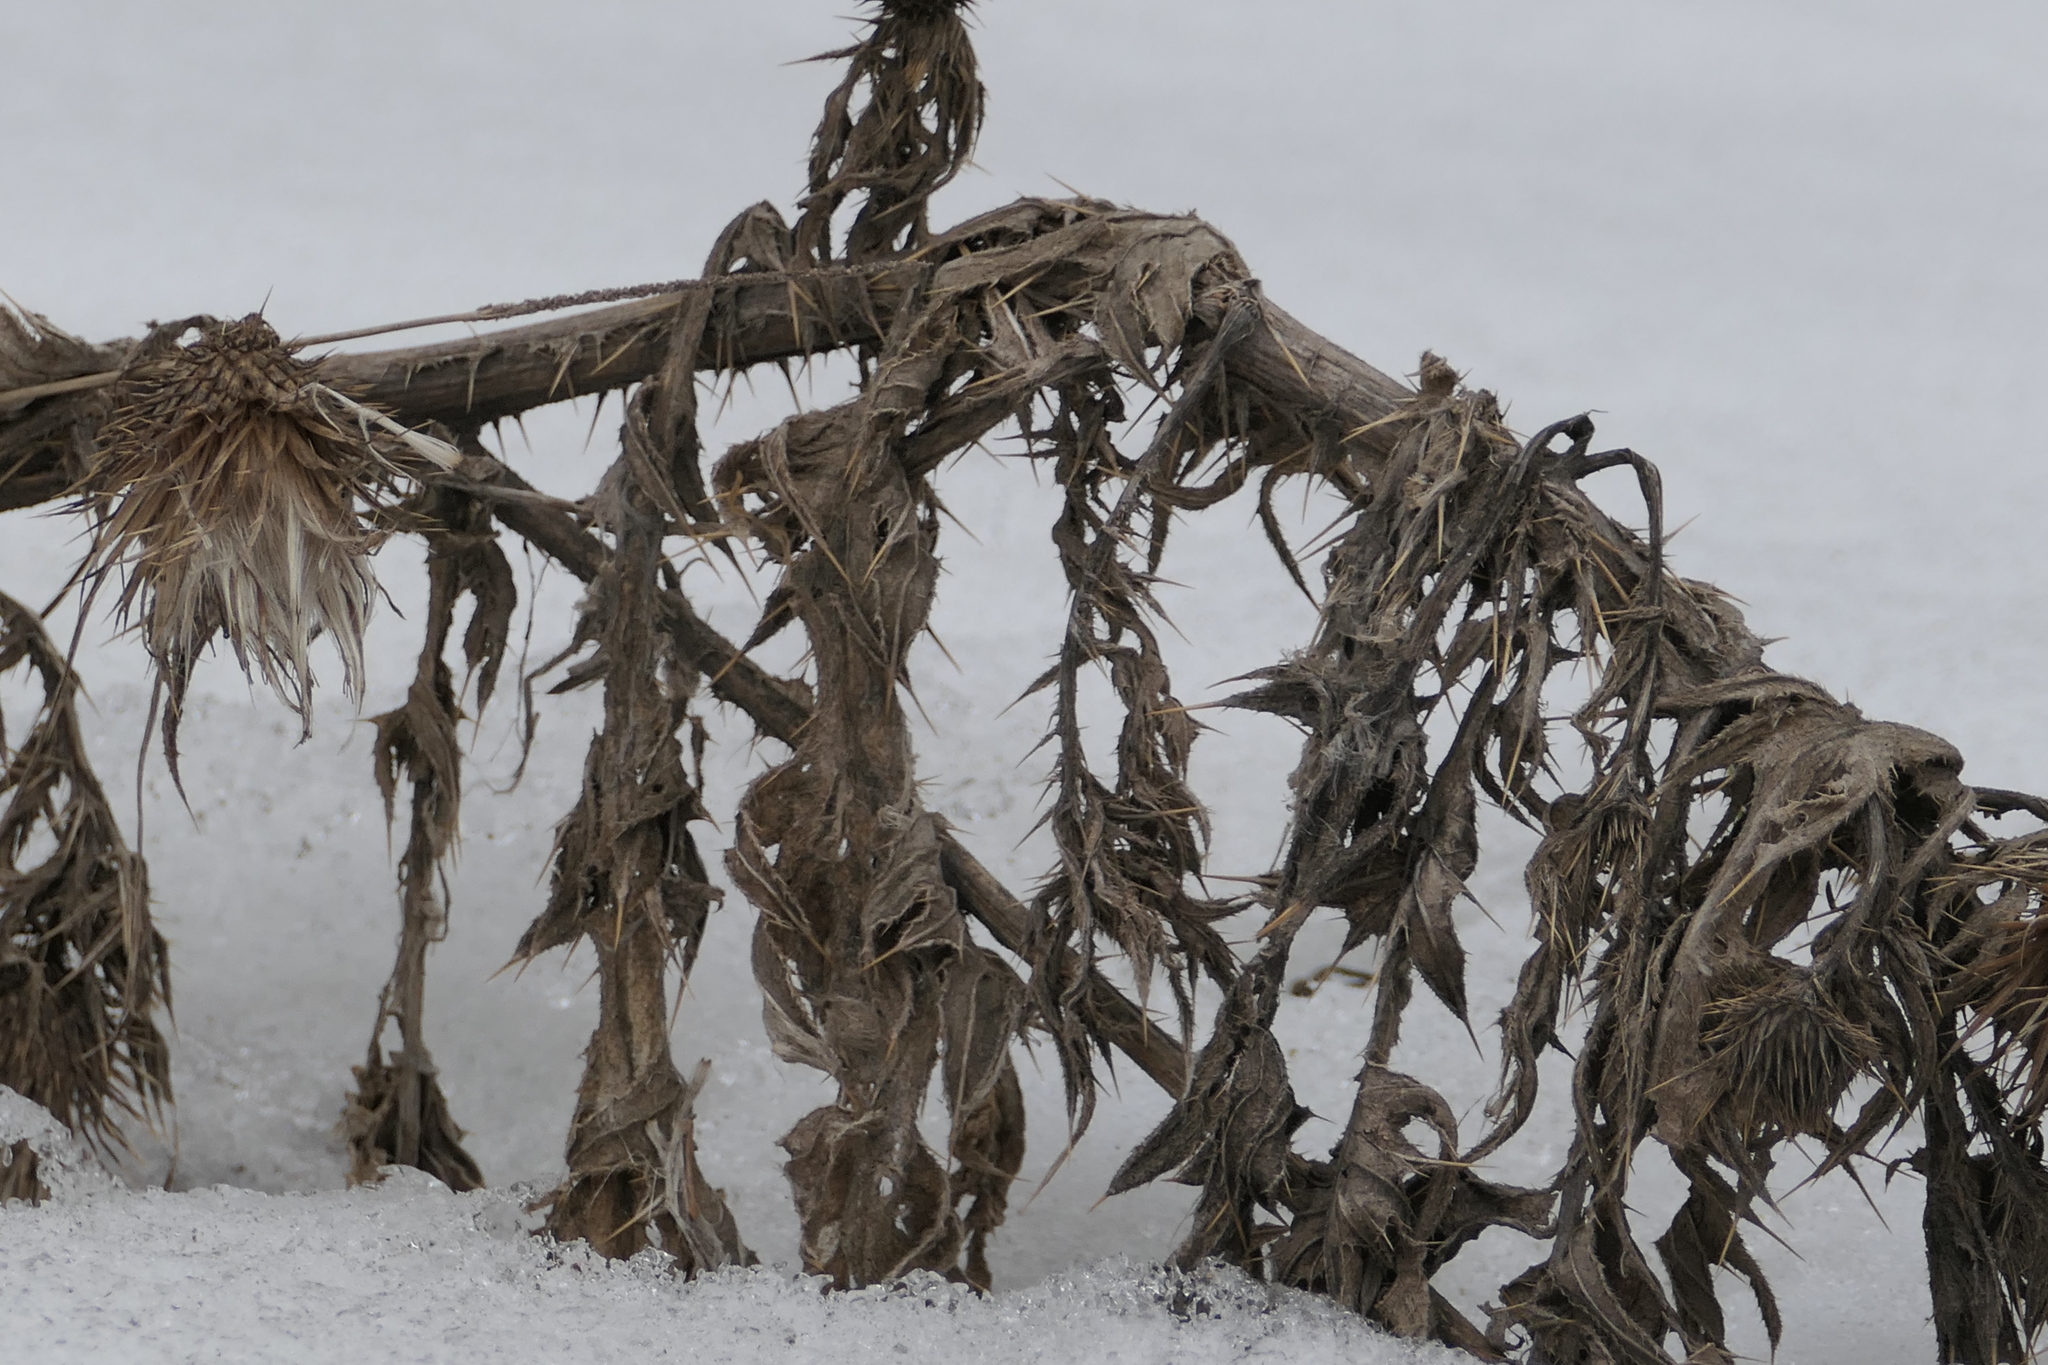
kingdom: Plantae
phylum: Tracheophyta
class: Magnoliopsida
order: Asterales
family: Asteraceae
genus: Cirsium
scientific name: Cirsium vulgare
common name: Bull thistle
